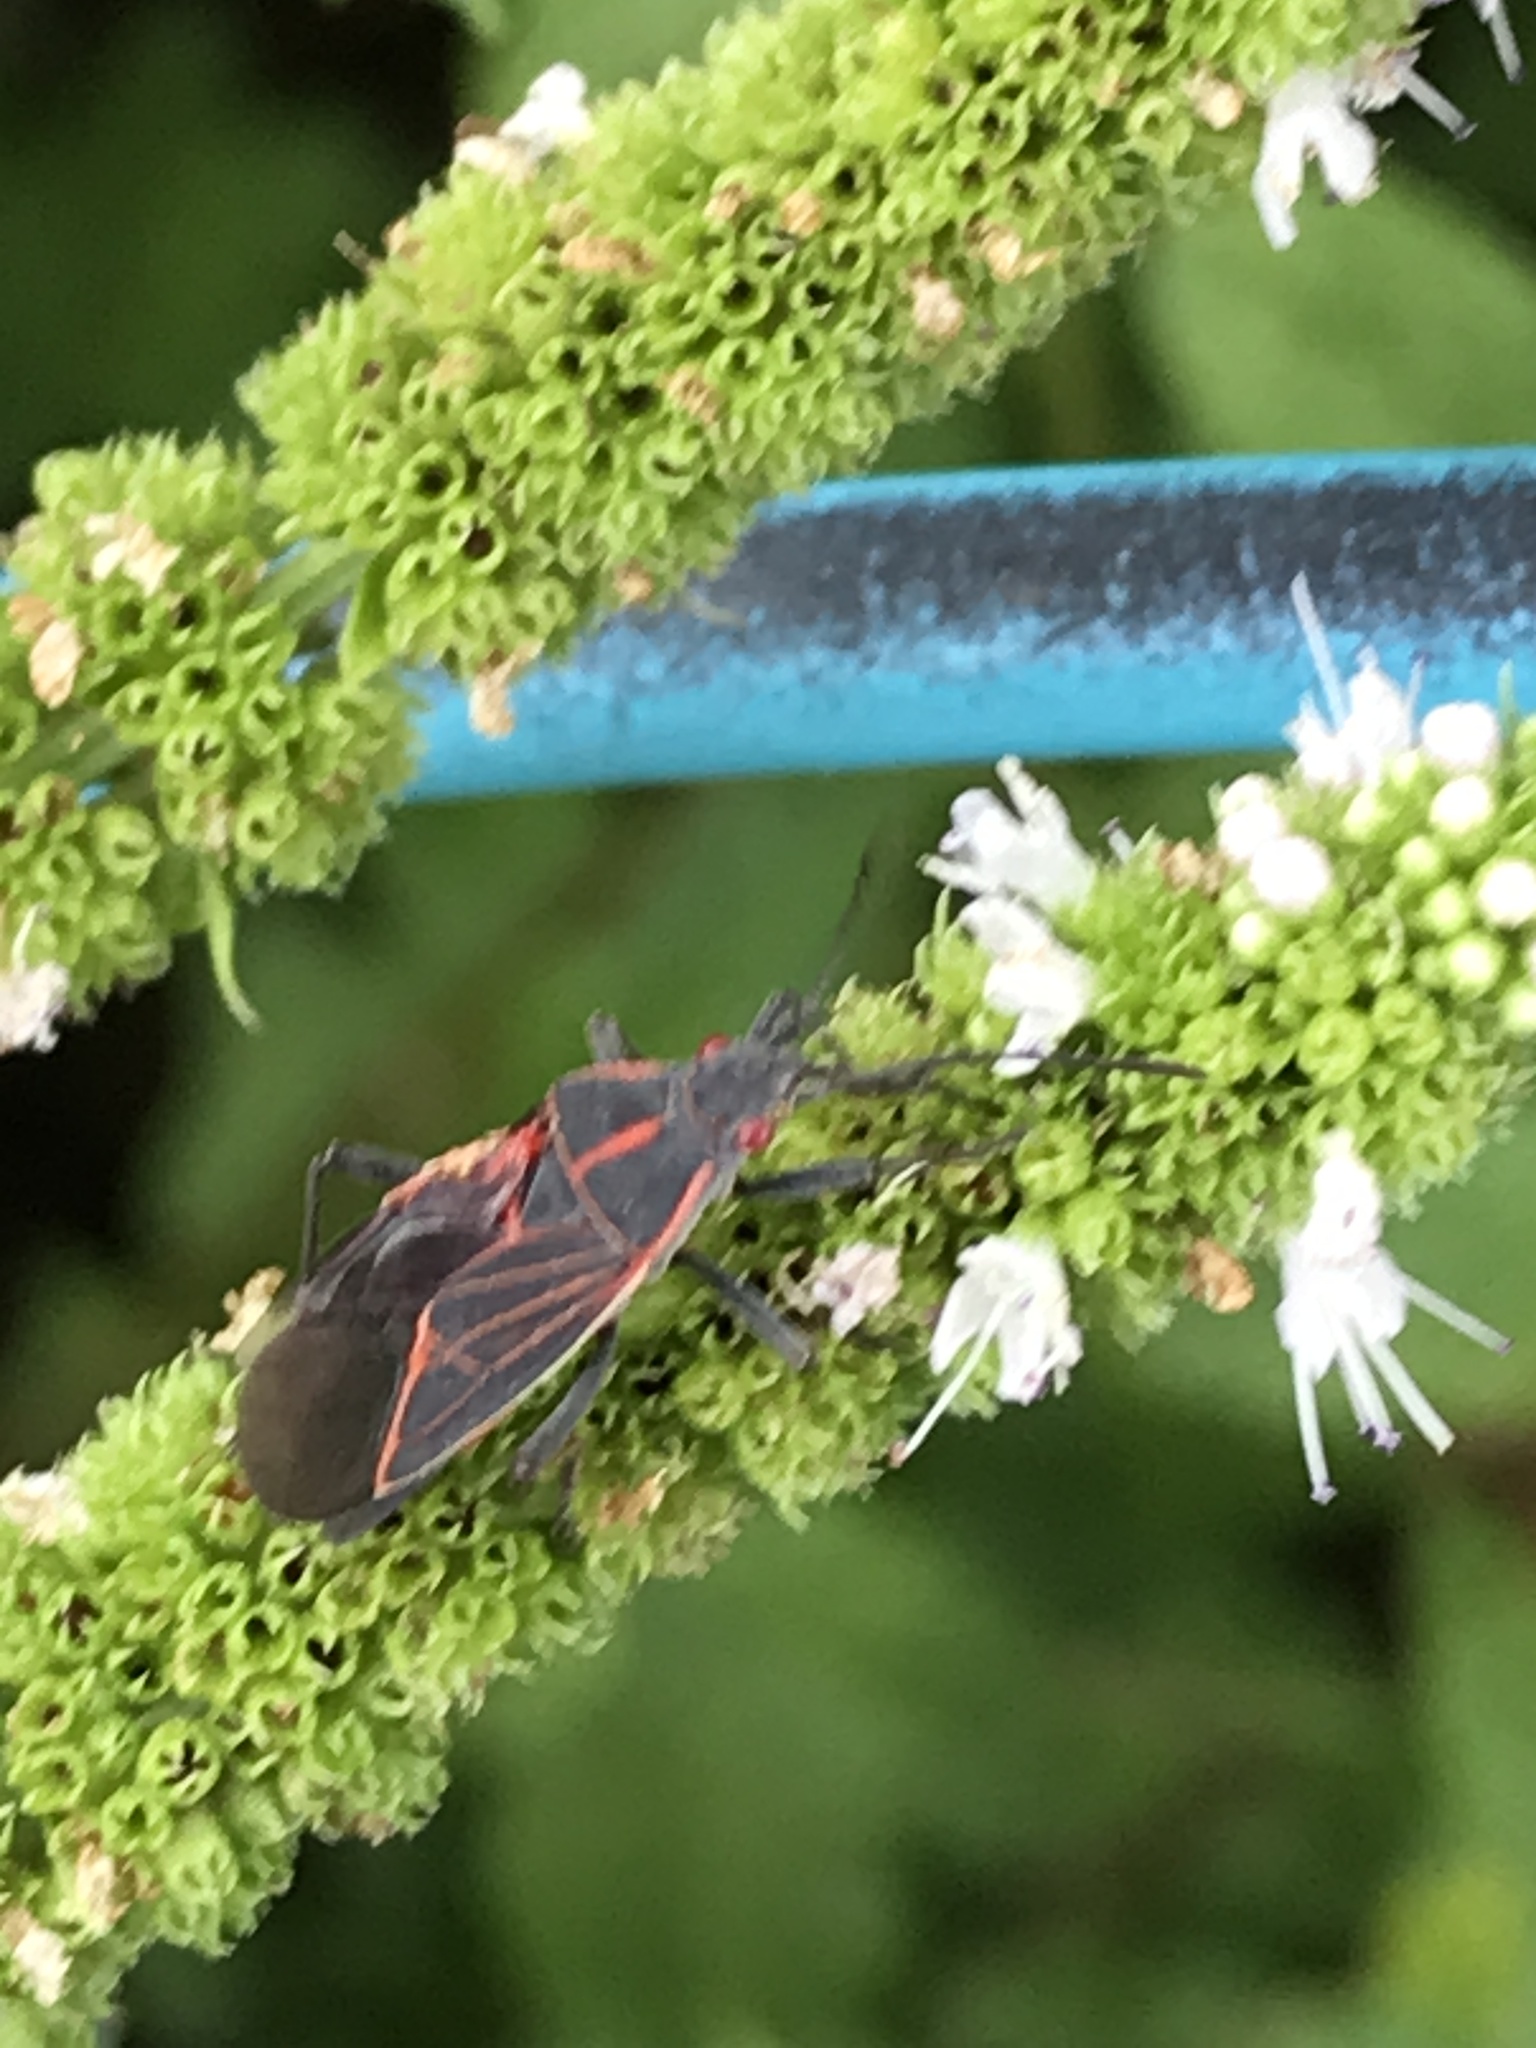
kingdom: Animalia
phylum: Arthropoda
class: Insecta
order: Hemiptera
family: Rhopalidae
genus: Boisea
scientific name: Boisea rubrolineata
